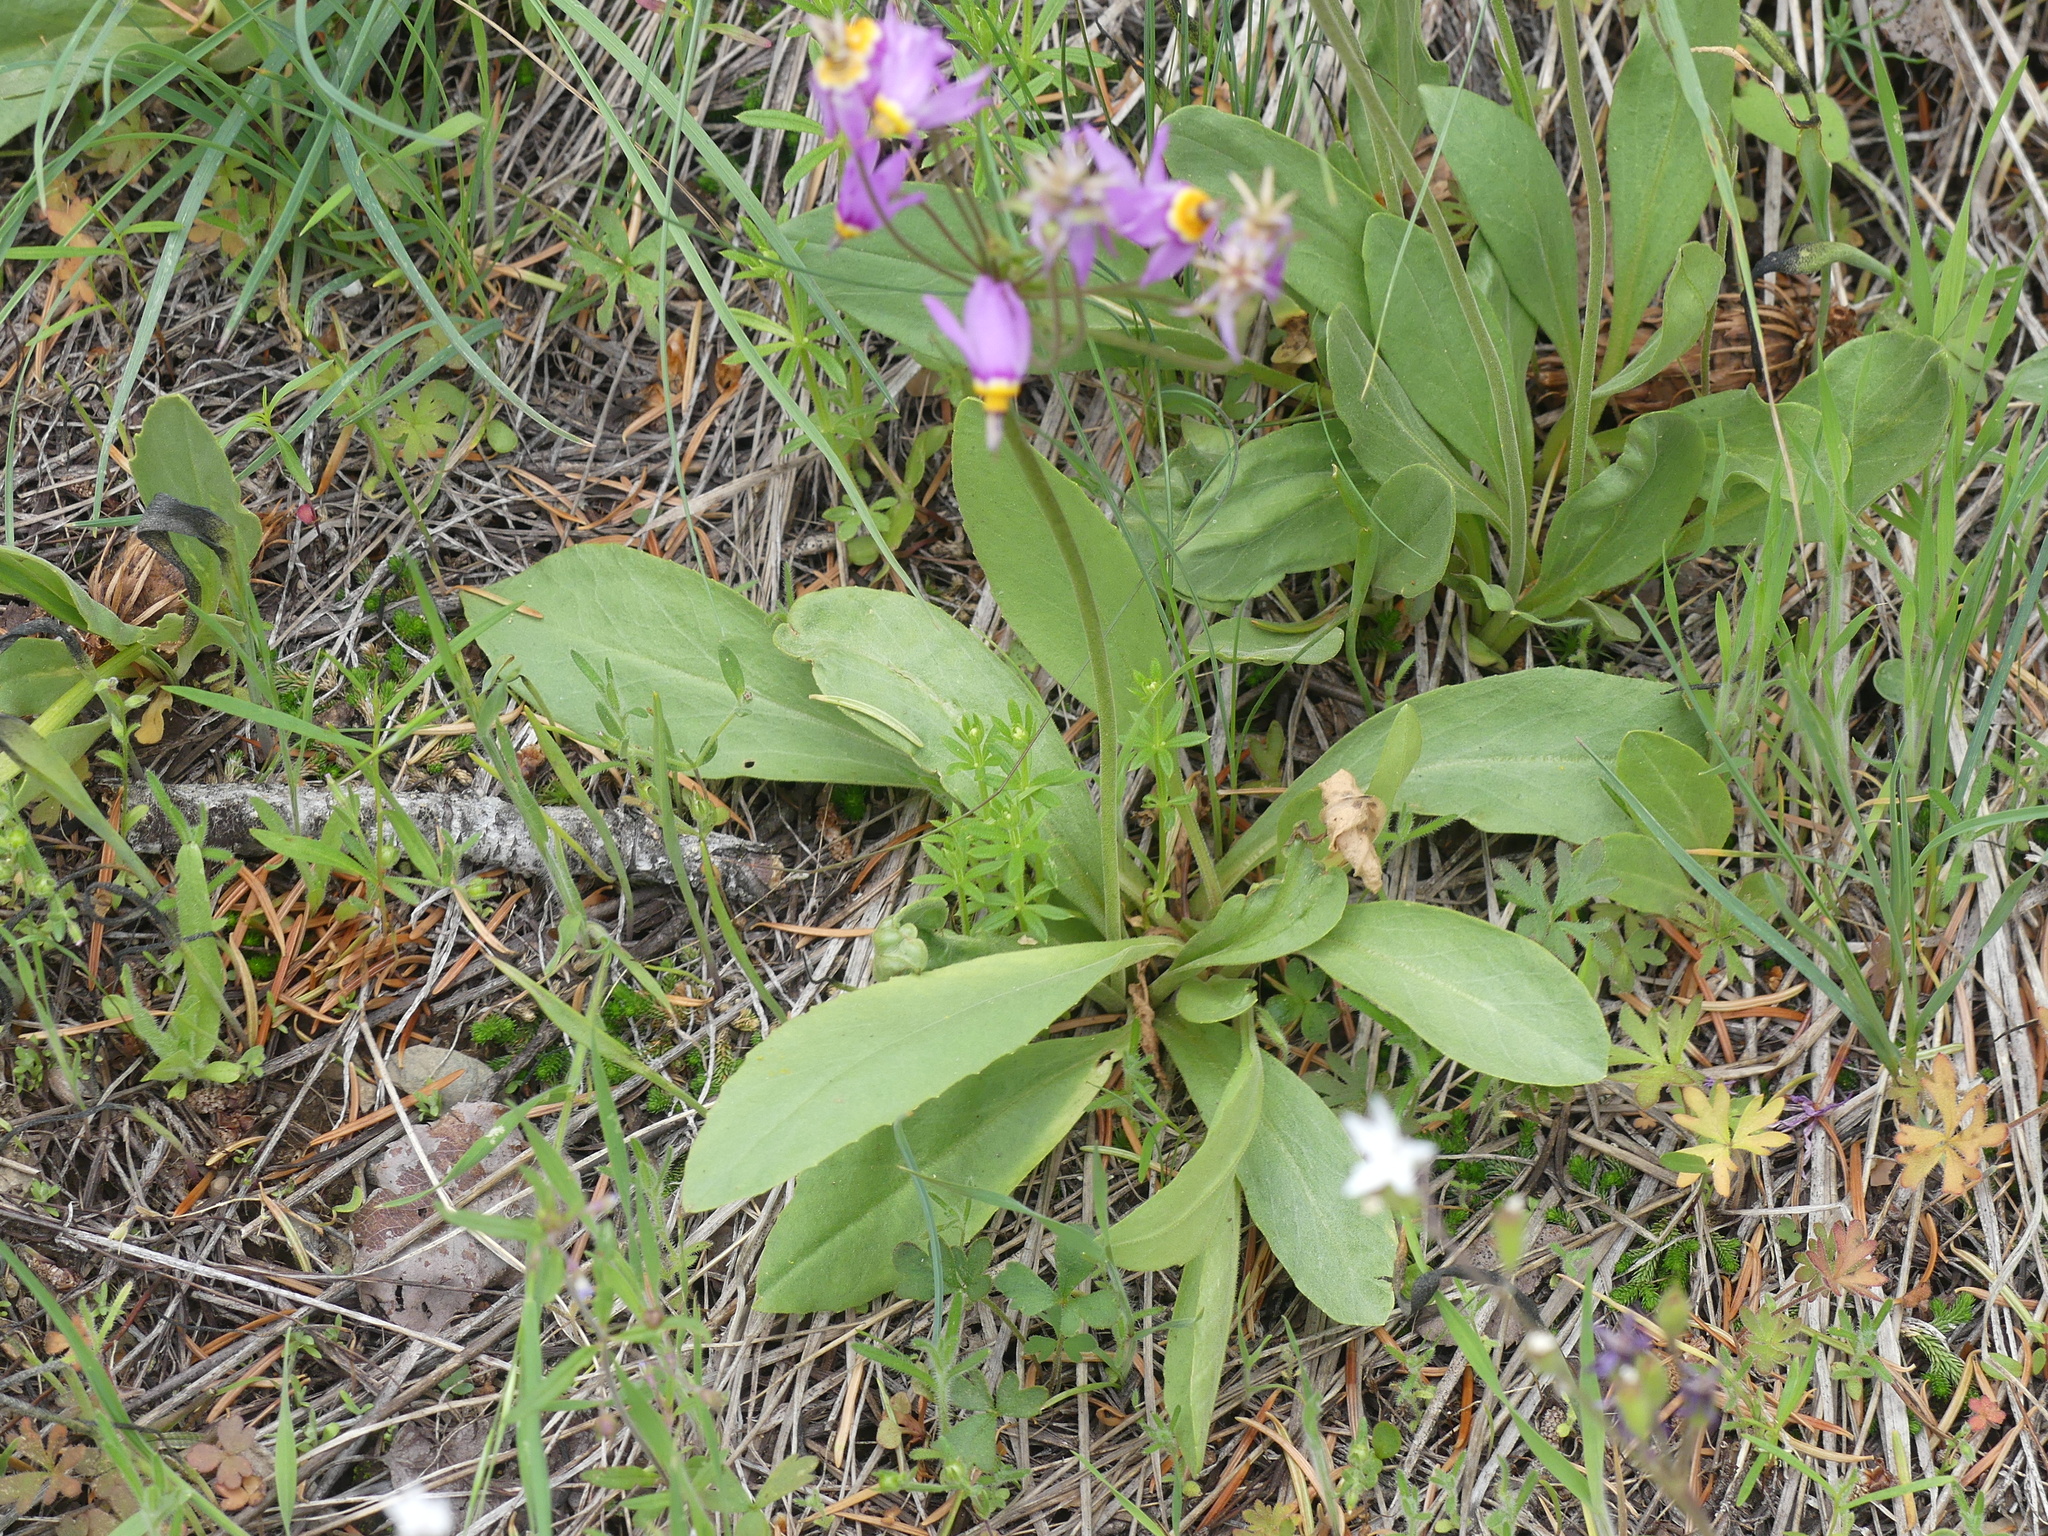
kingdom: Plantae
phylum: Tracheophyta
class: Magnoliopsida
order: Ericales
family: Primulaceae
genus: Dodecatheon
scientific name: Dodecatheon pulchellum
